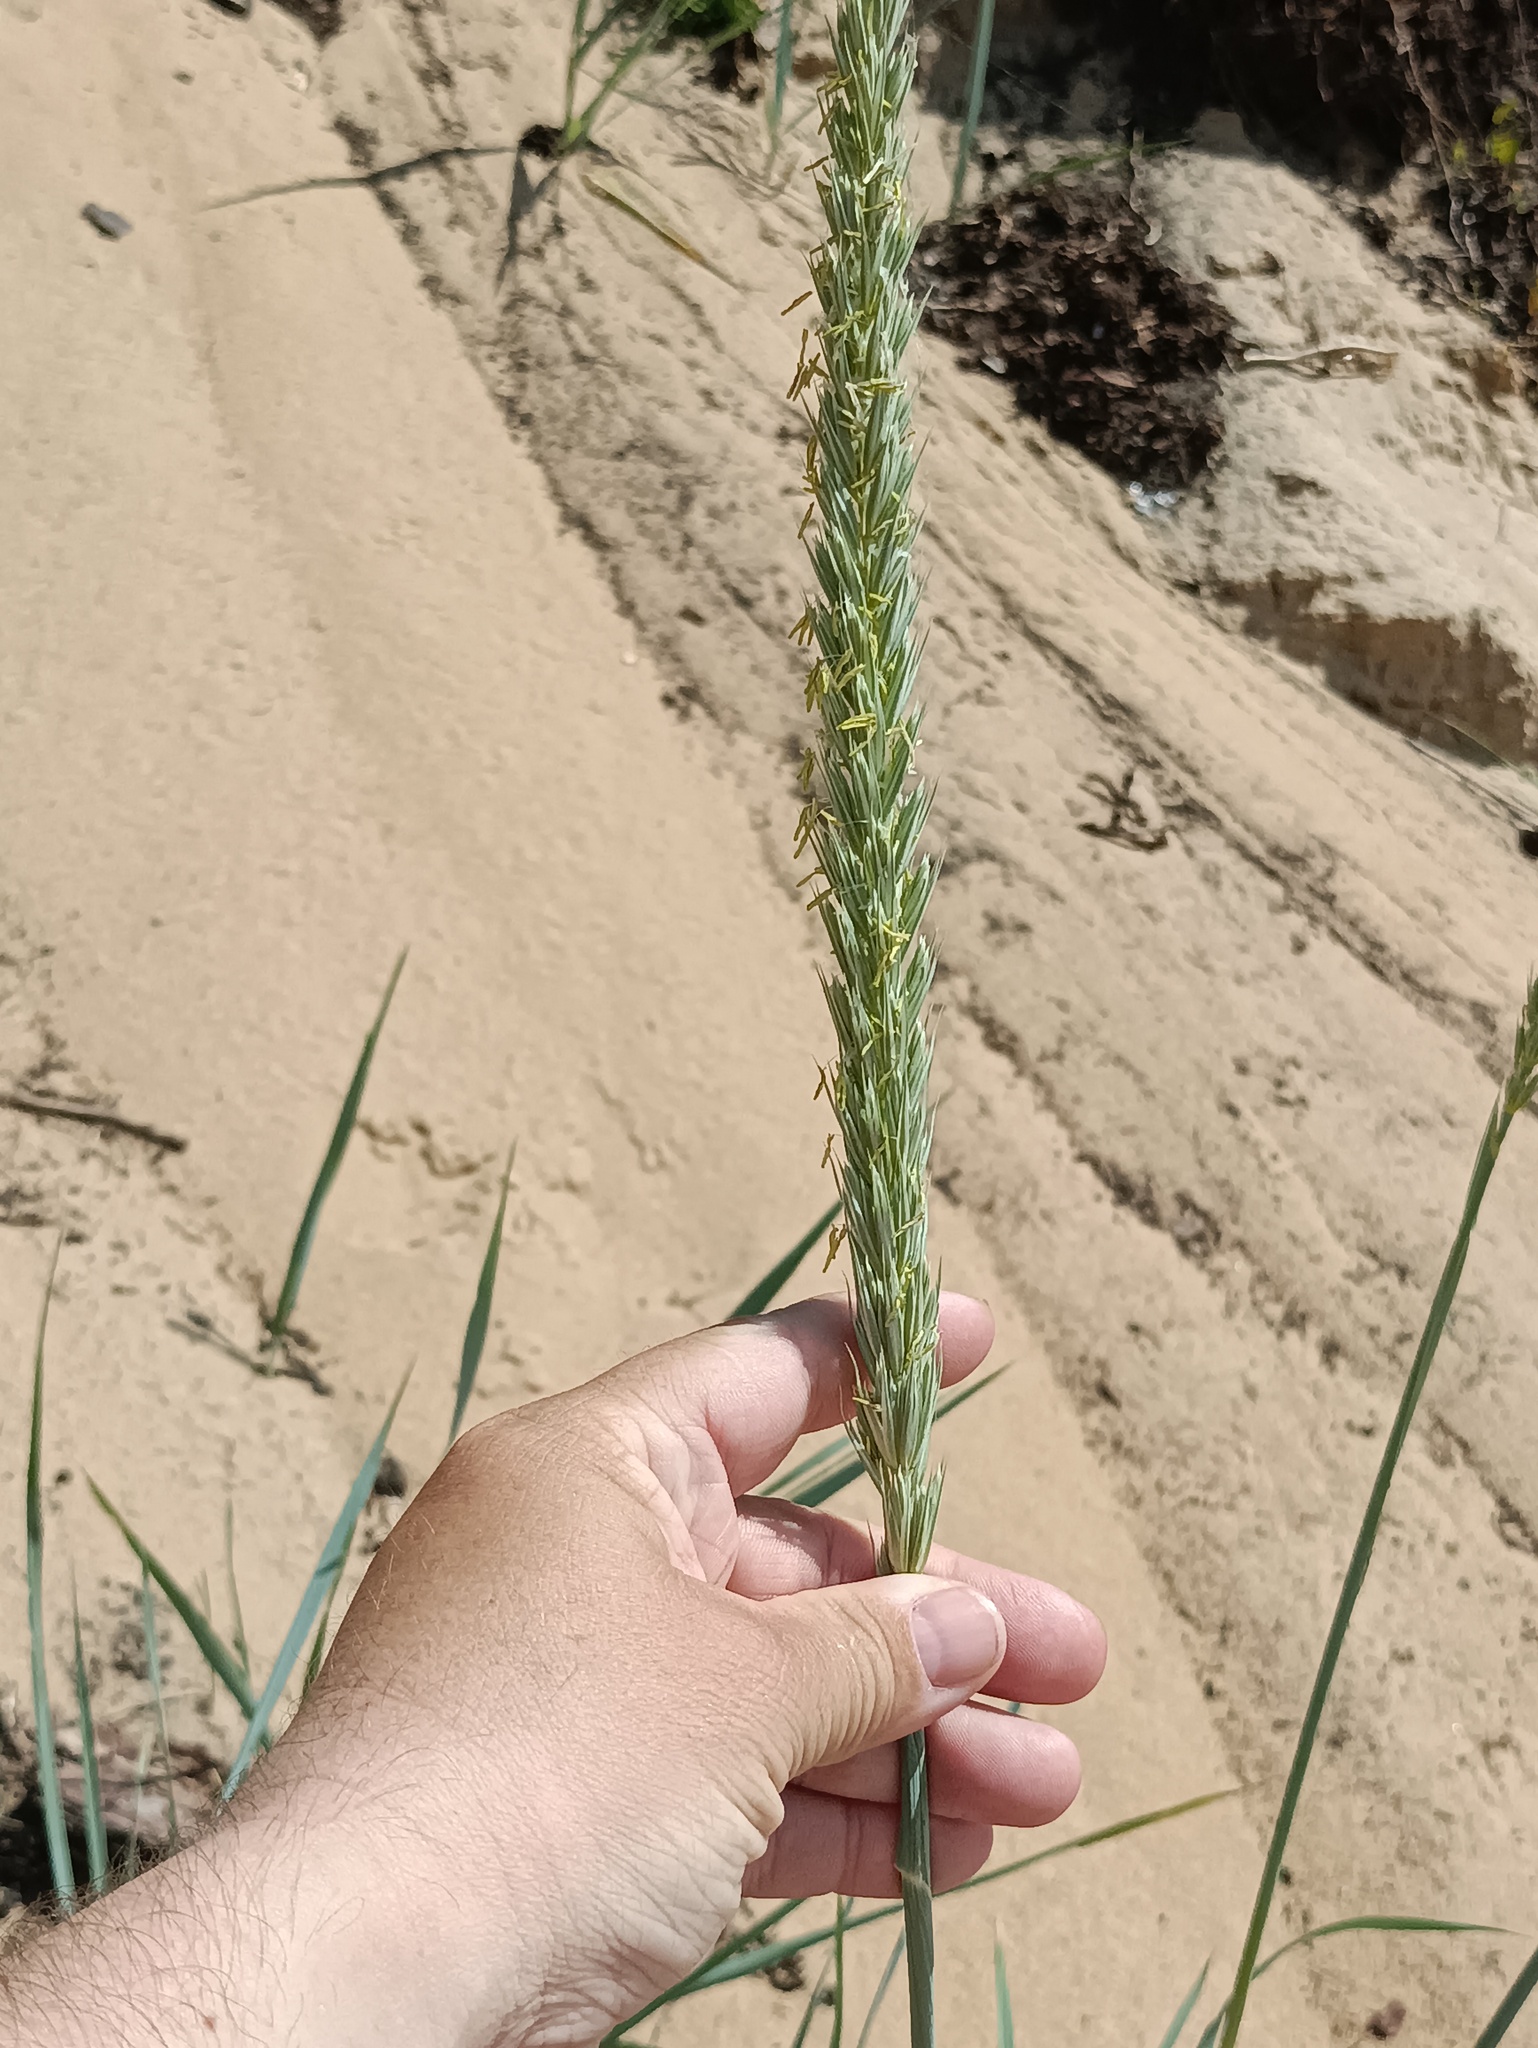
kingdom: Plantae
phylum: Tracheophyta
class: Liliopsida
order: Poales
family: Poaceae
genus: Leymus
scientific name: Leymus racemosus
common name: Mammoth wildrye
